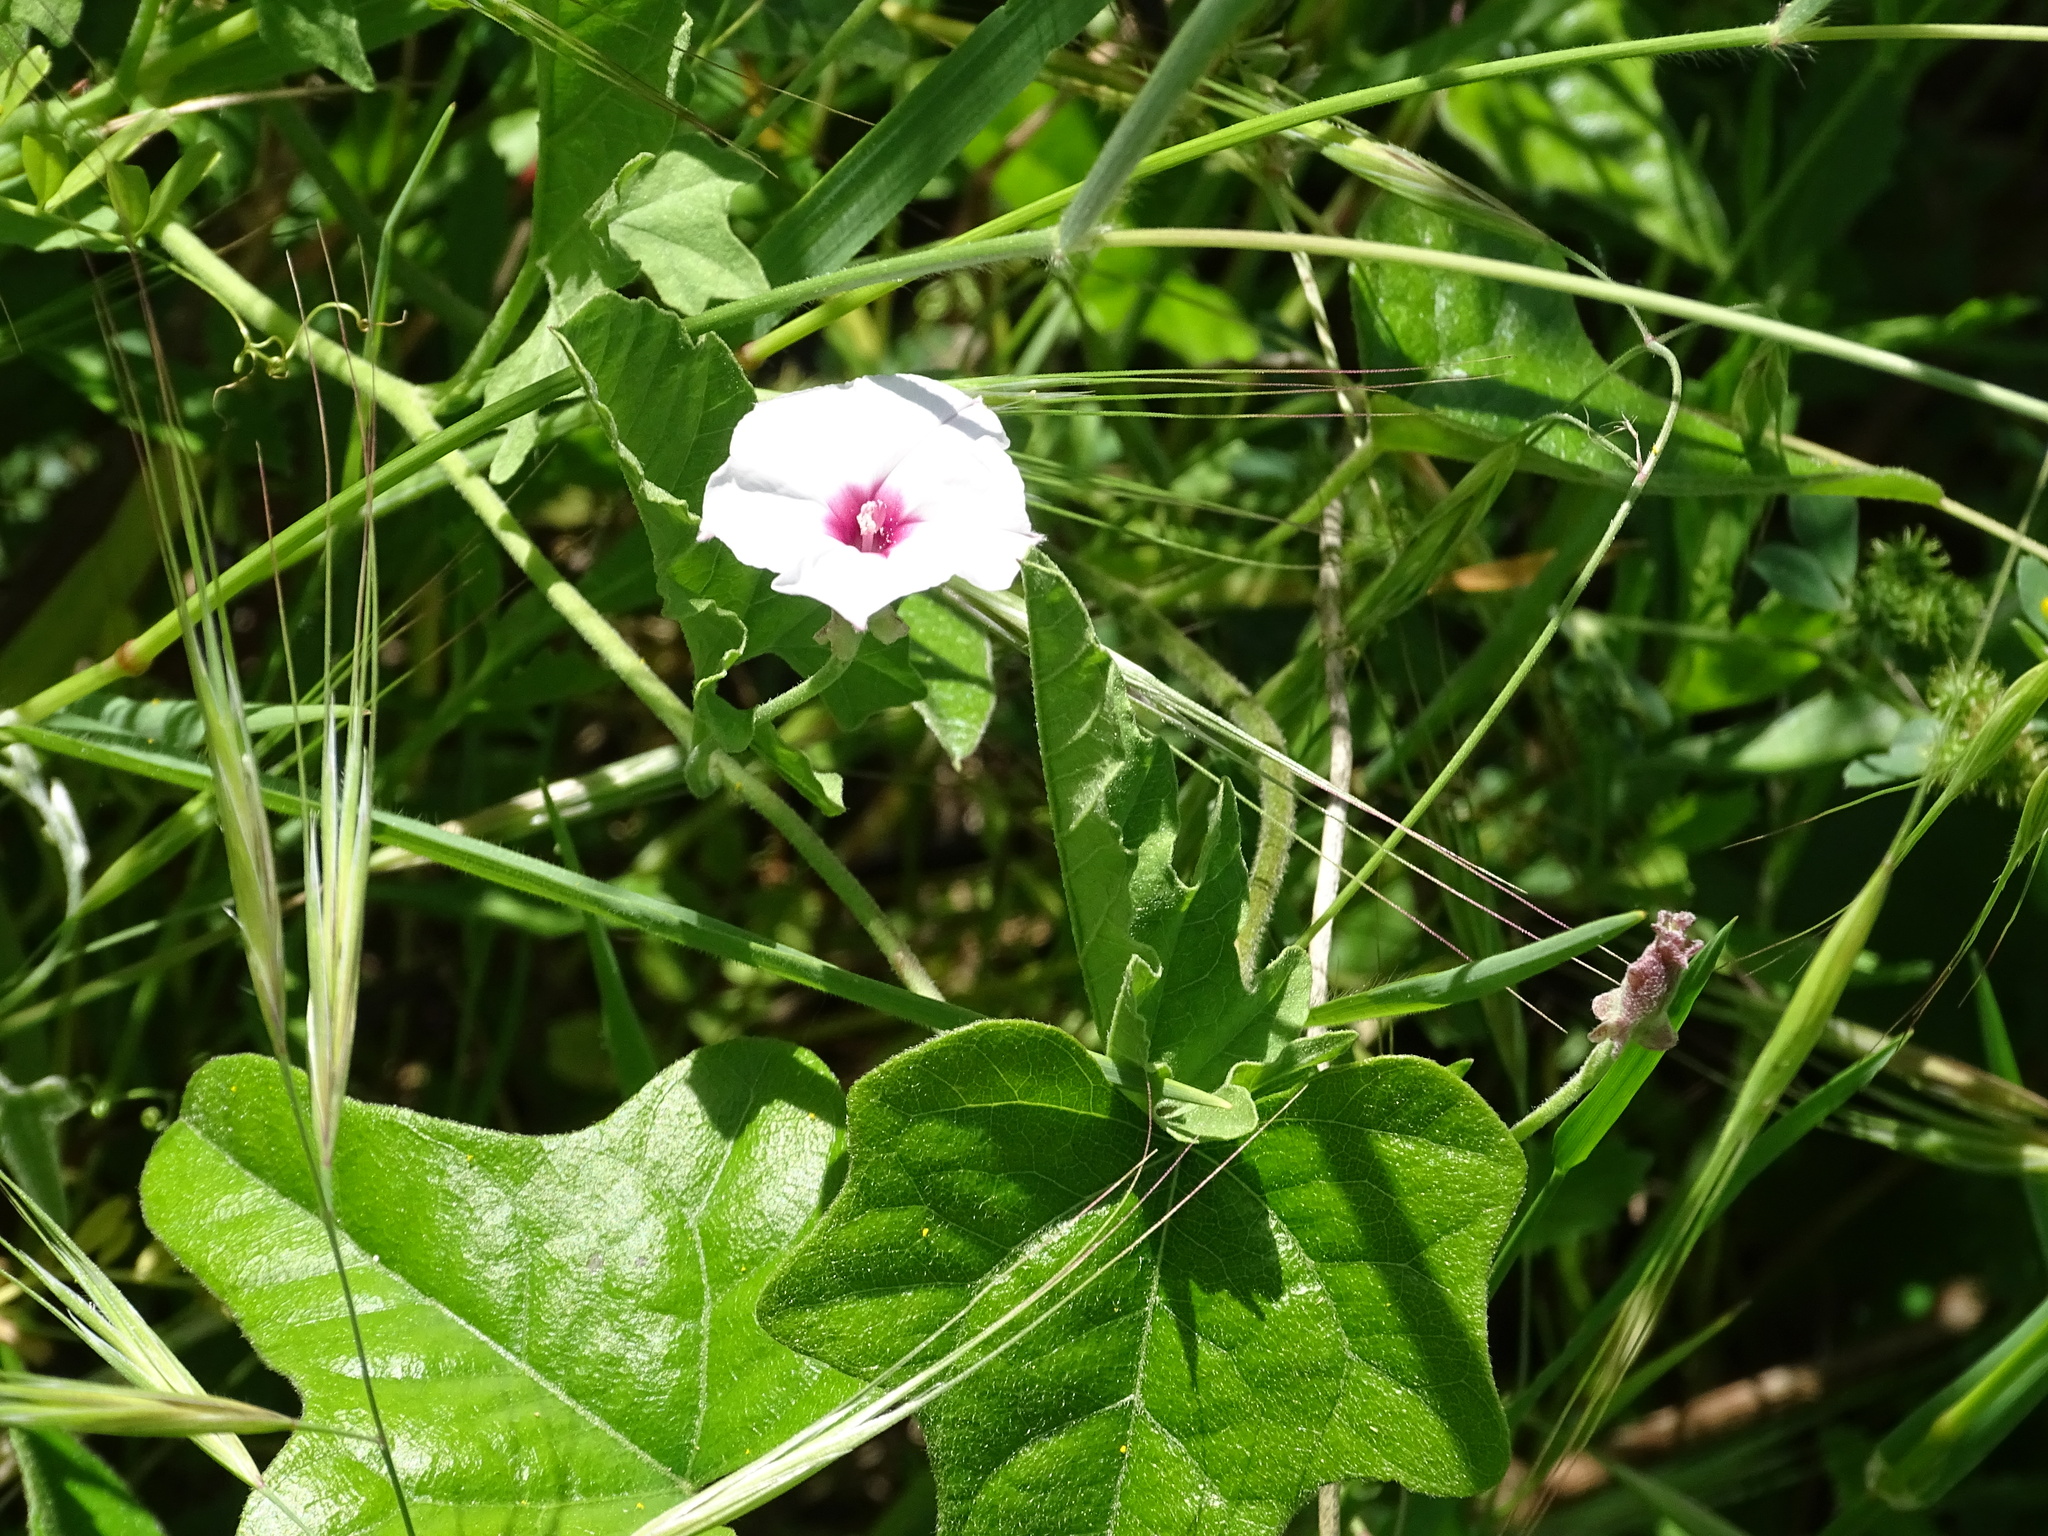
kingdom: Plantae
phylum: Tracheophyta
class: Magnoliopsida
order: Solanales
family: Convolvulaceae
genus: Convolvulus
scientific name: Convolvulus equitans
